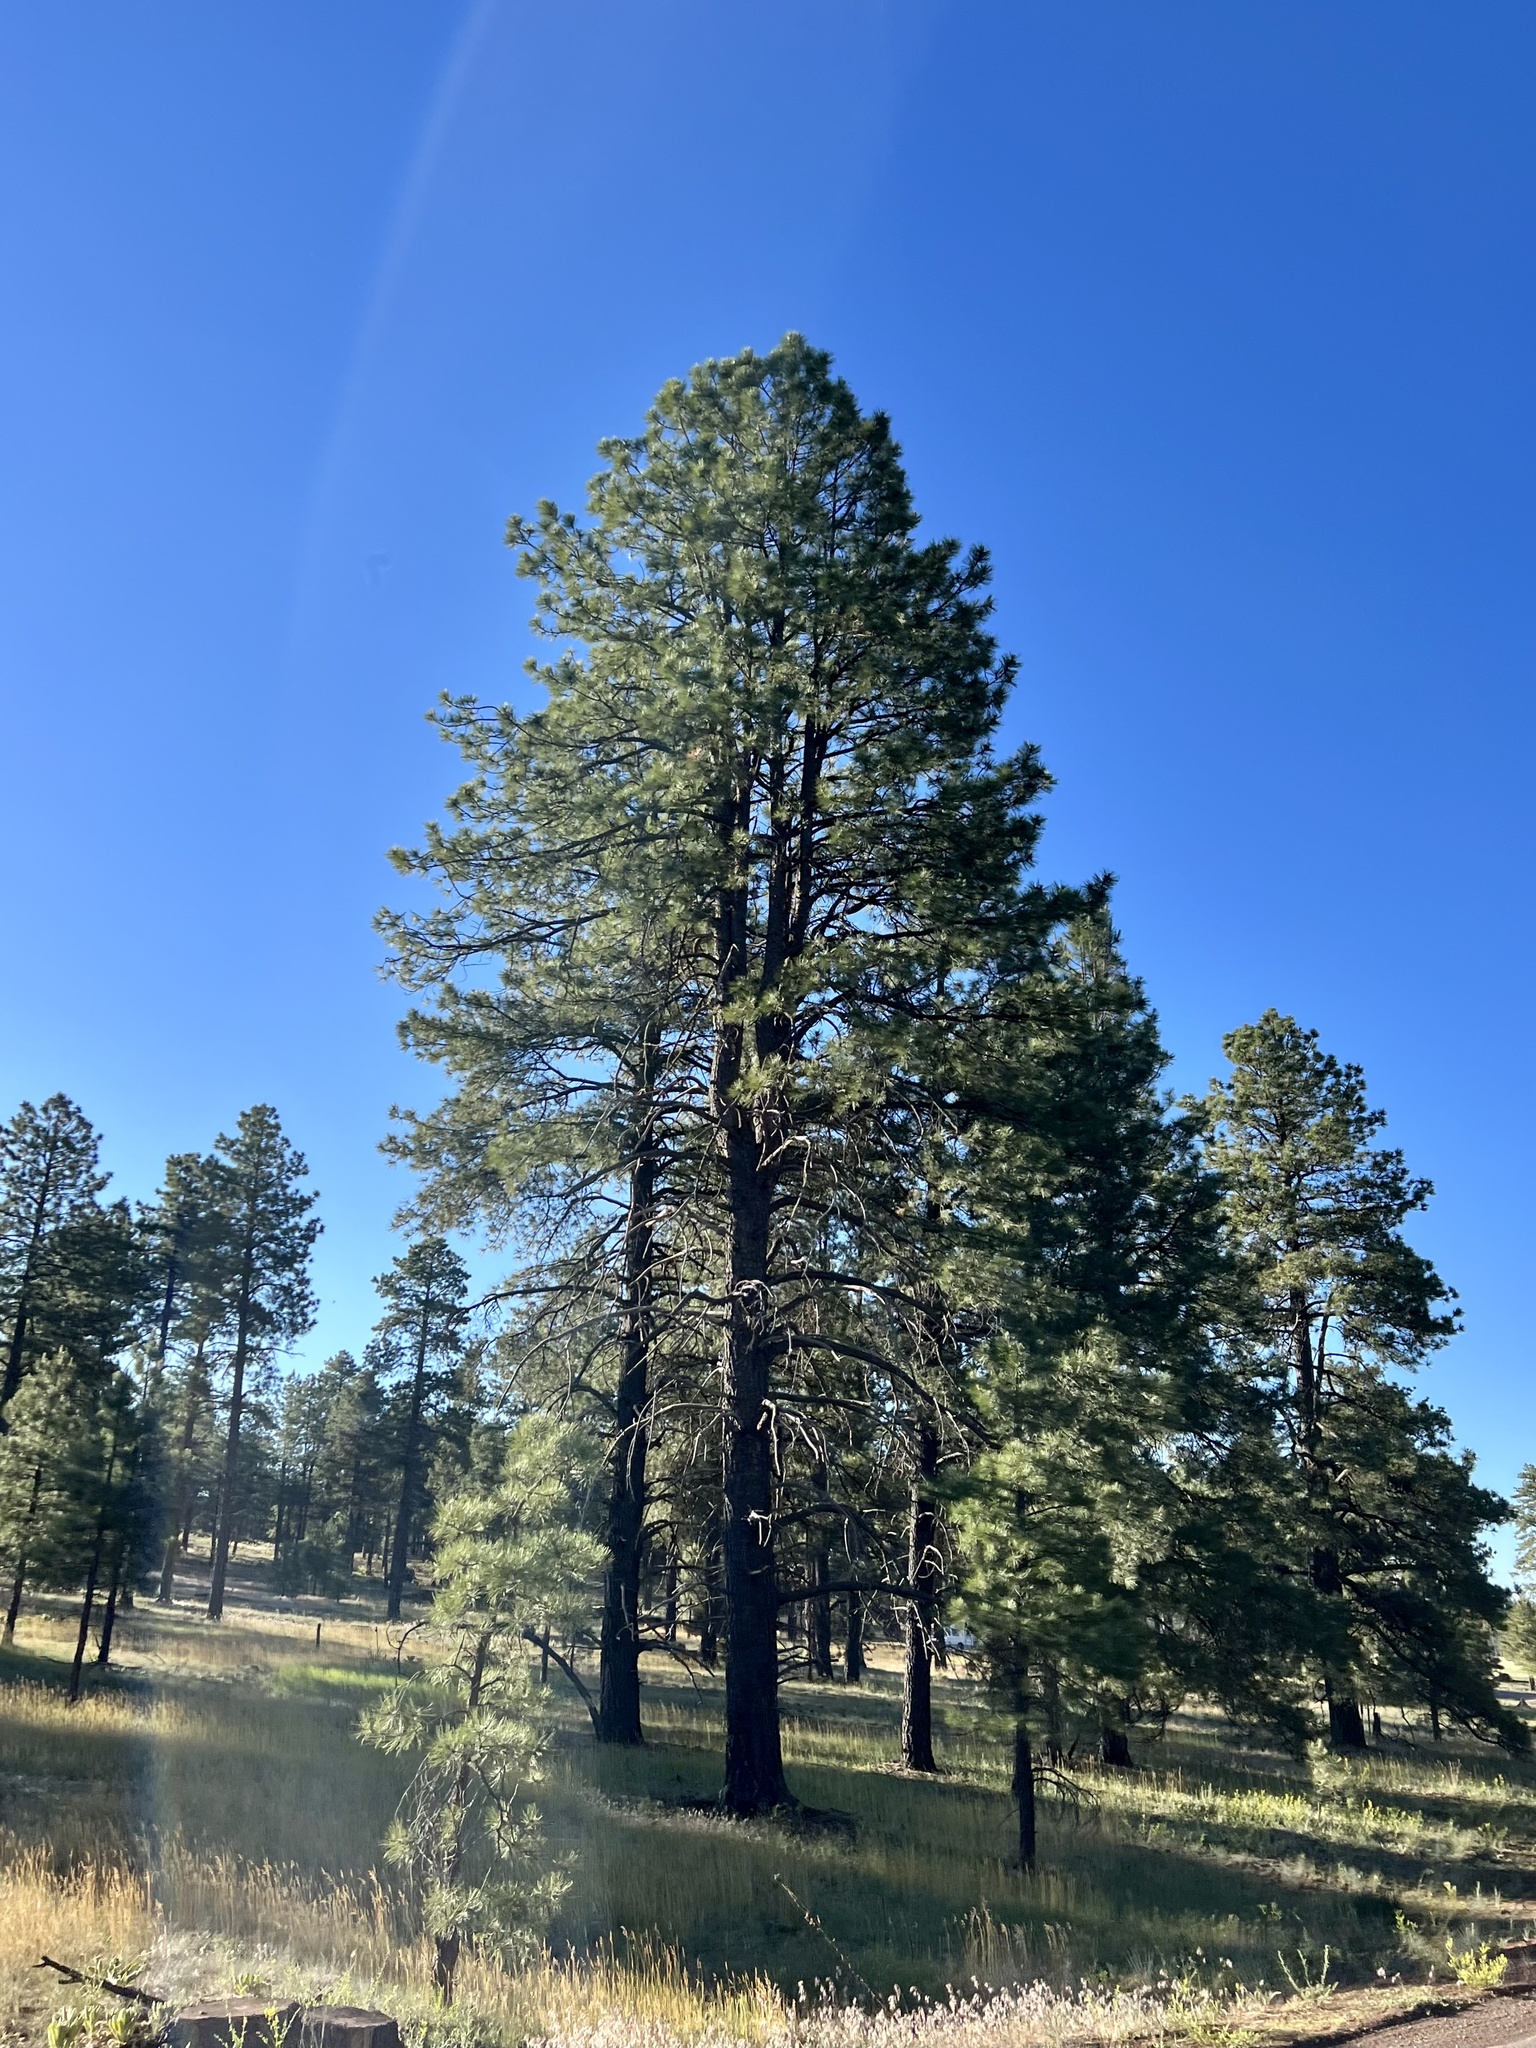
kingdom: Plantae
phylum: Tracheophyta
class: Pinopsida
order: Pinales
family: Pinaceae
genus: Pinus
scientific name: Pinus ponderosa
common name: Western yellow-pine
